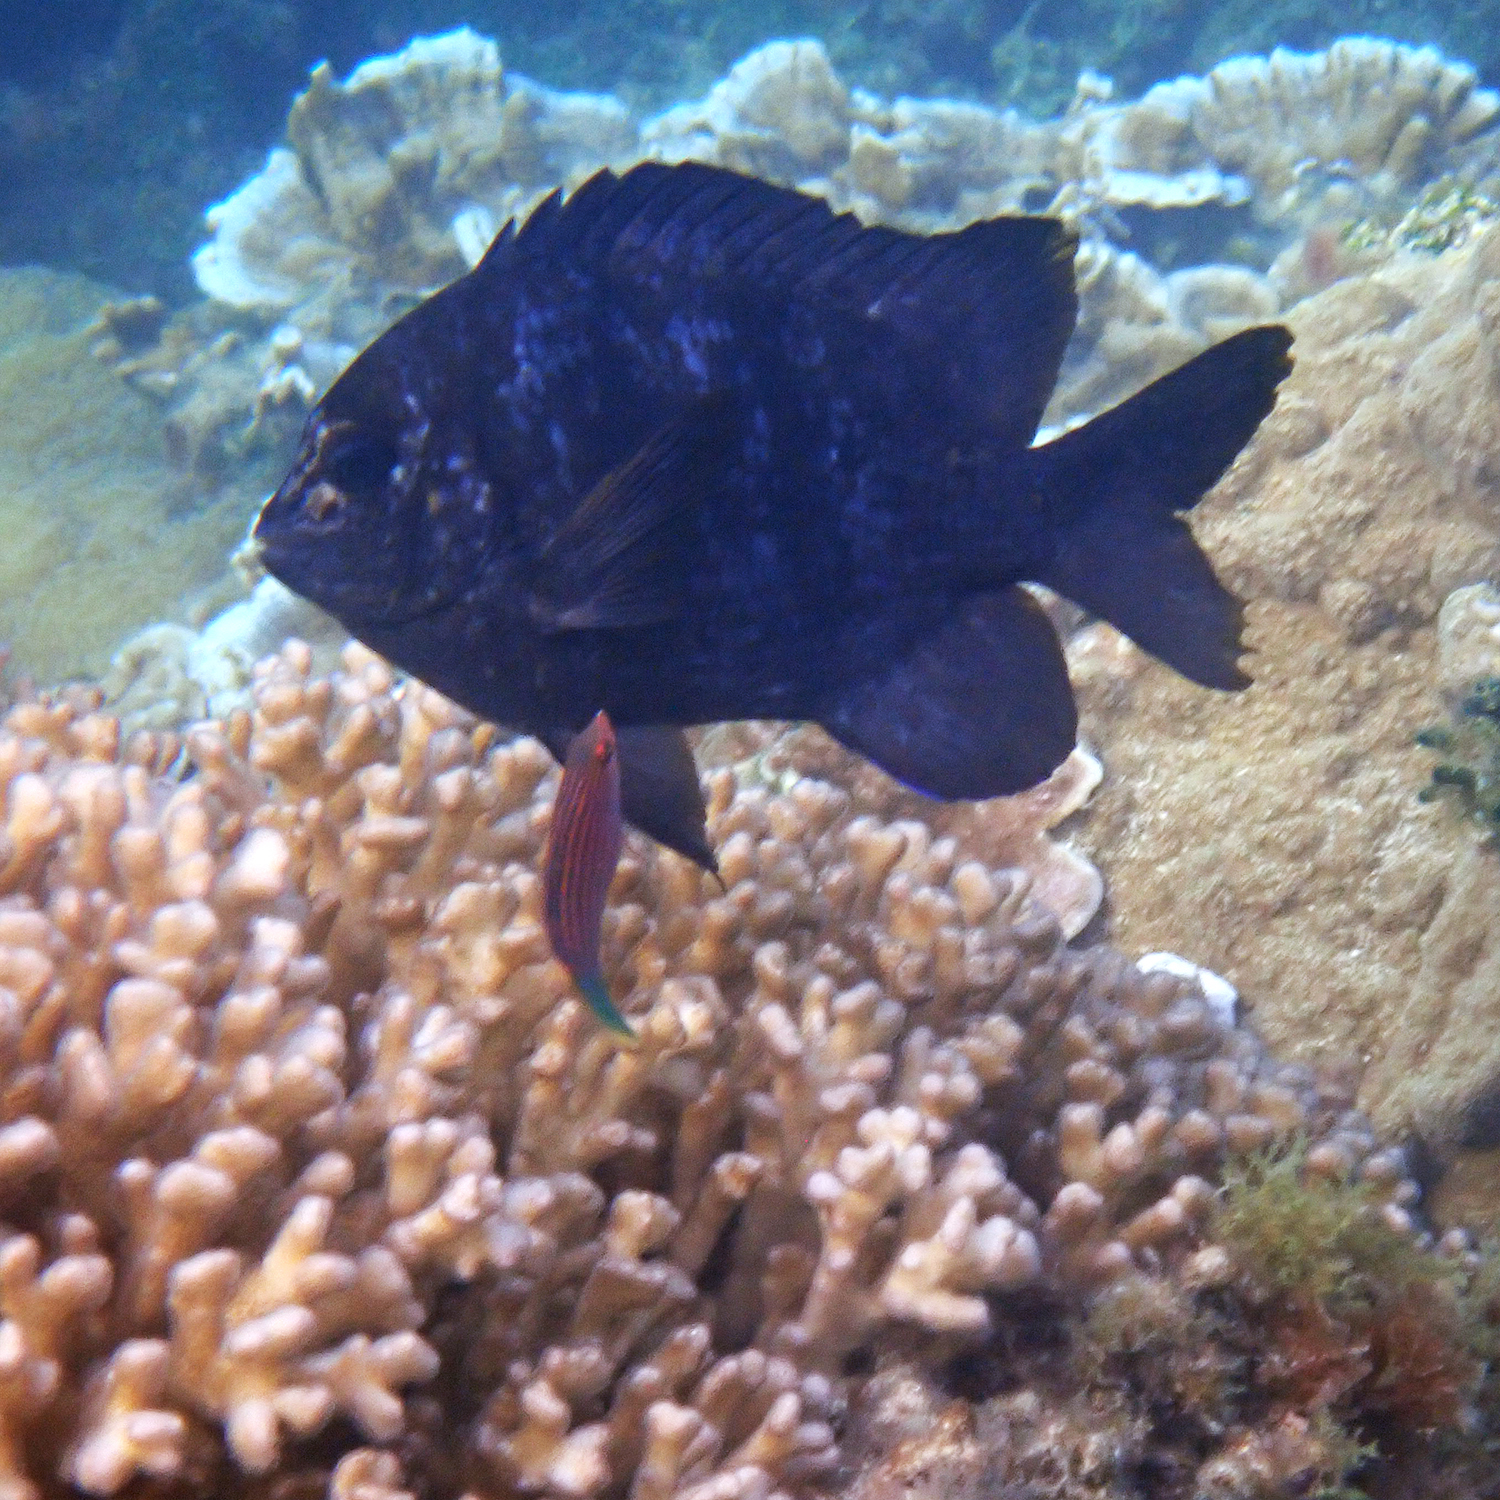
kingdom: Animalia
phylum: Chordata
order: Perciformes
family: Labridae
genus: Pseudocheilinus
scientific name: Pseudocheilinus hexataenia
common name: Sixline wrasse
